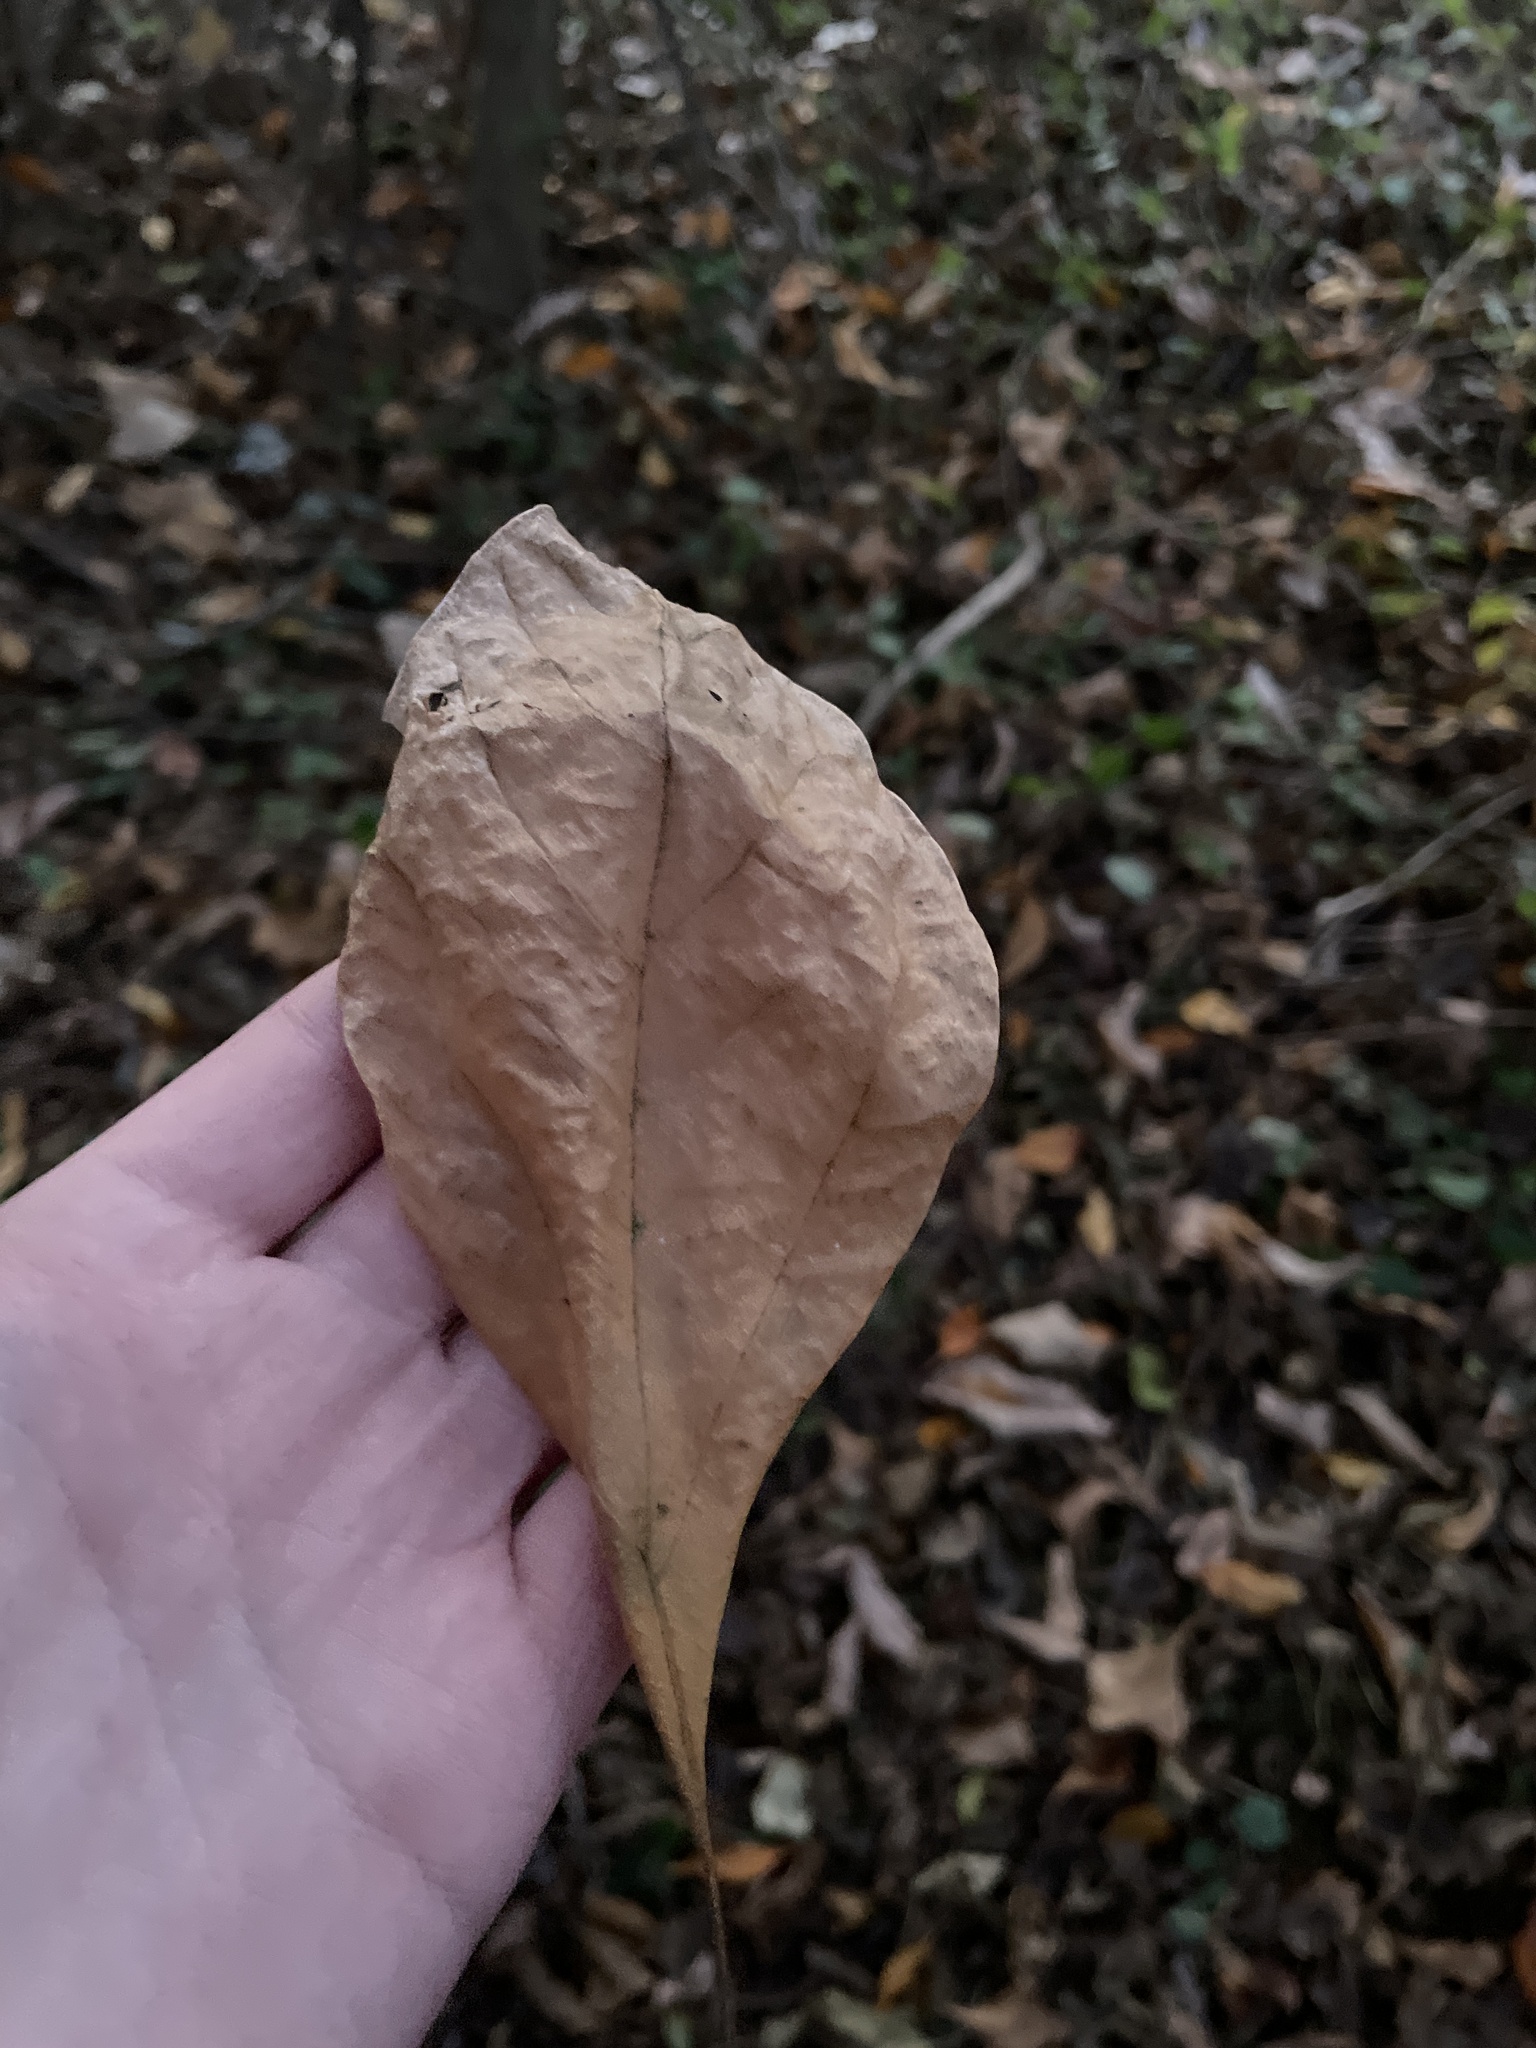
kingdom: Plantae
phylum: Tracheophyta
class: Magnoliopsida
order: Laurales
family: Lauraceae
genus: Sassafras
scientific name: Sassafras albidum
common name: Sassafras
